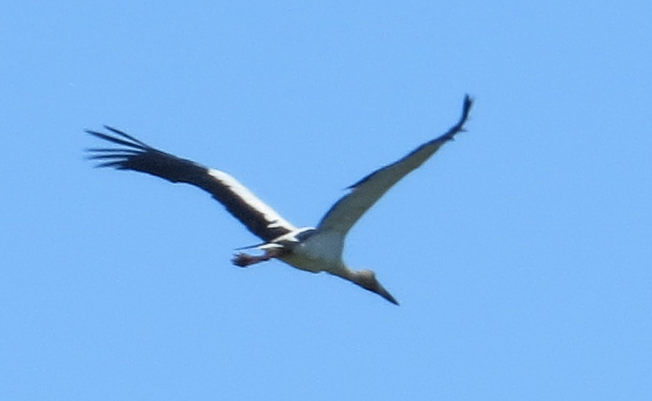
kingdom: Animalia
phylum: Chordata
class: Aves
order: Ciconiiformes
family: Ciconiidae
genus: Ciconia
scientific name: Ciconia maguari
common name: Maguari stork
